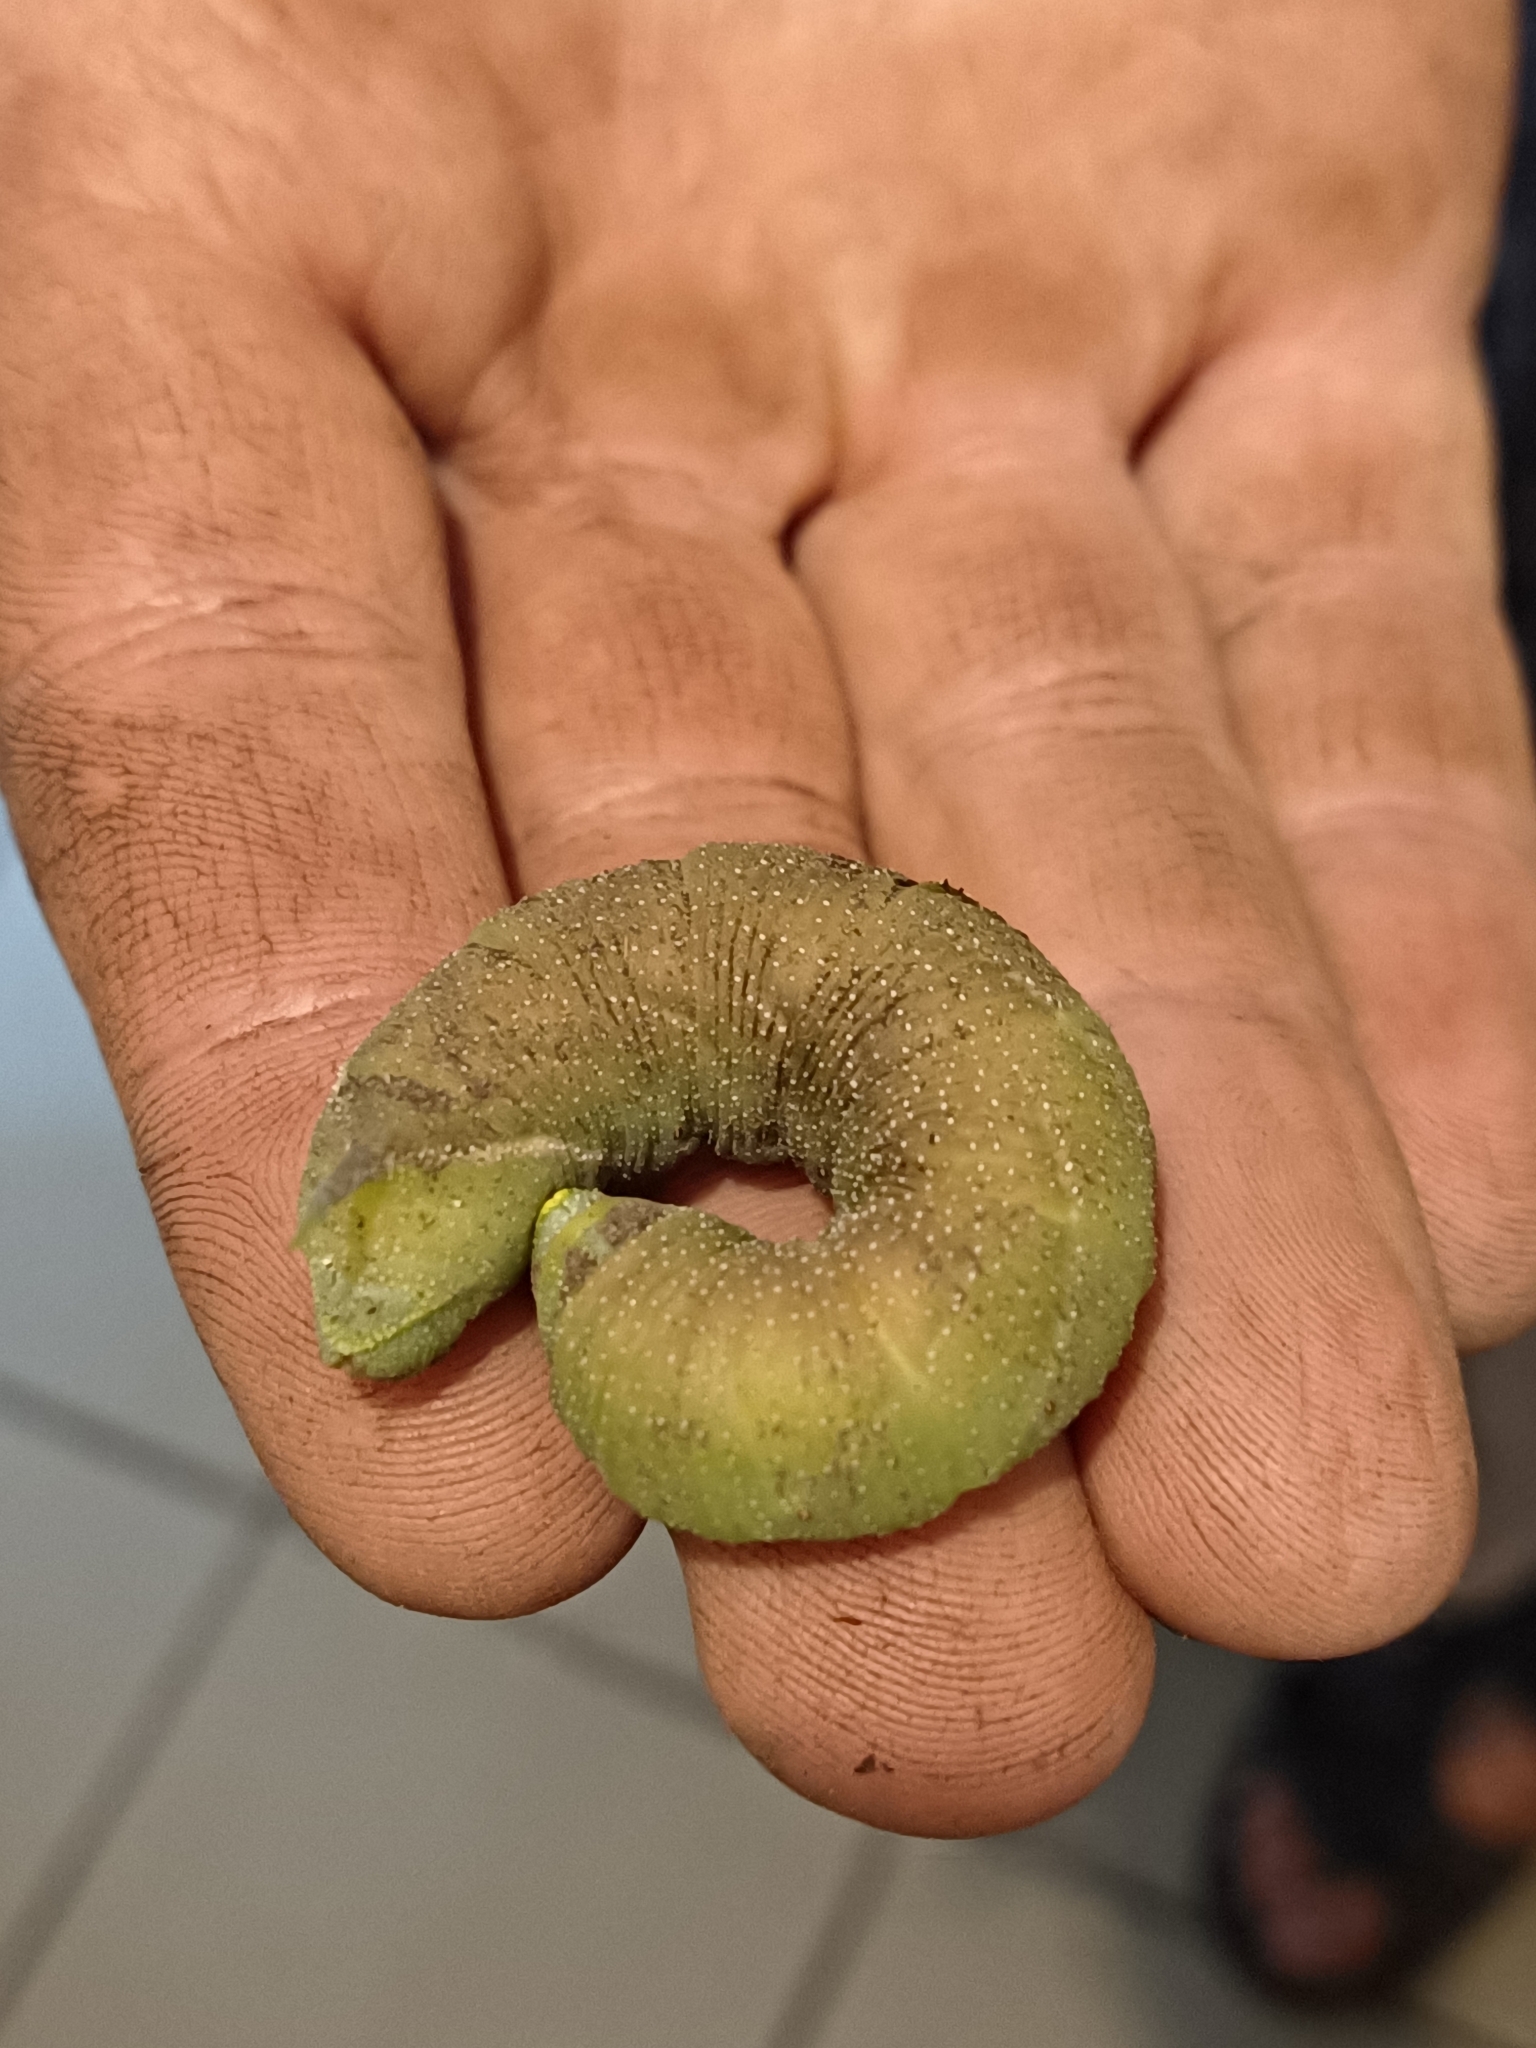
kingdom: Animalia
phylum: Arthropoda
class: Insecta
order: Lepidoptera
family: Sphingidae
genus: Smerinthus
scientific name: Smerinthus ocellata
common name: Eyed hawk-moth
